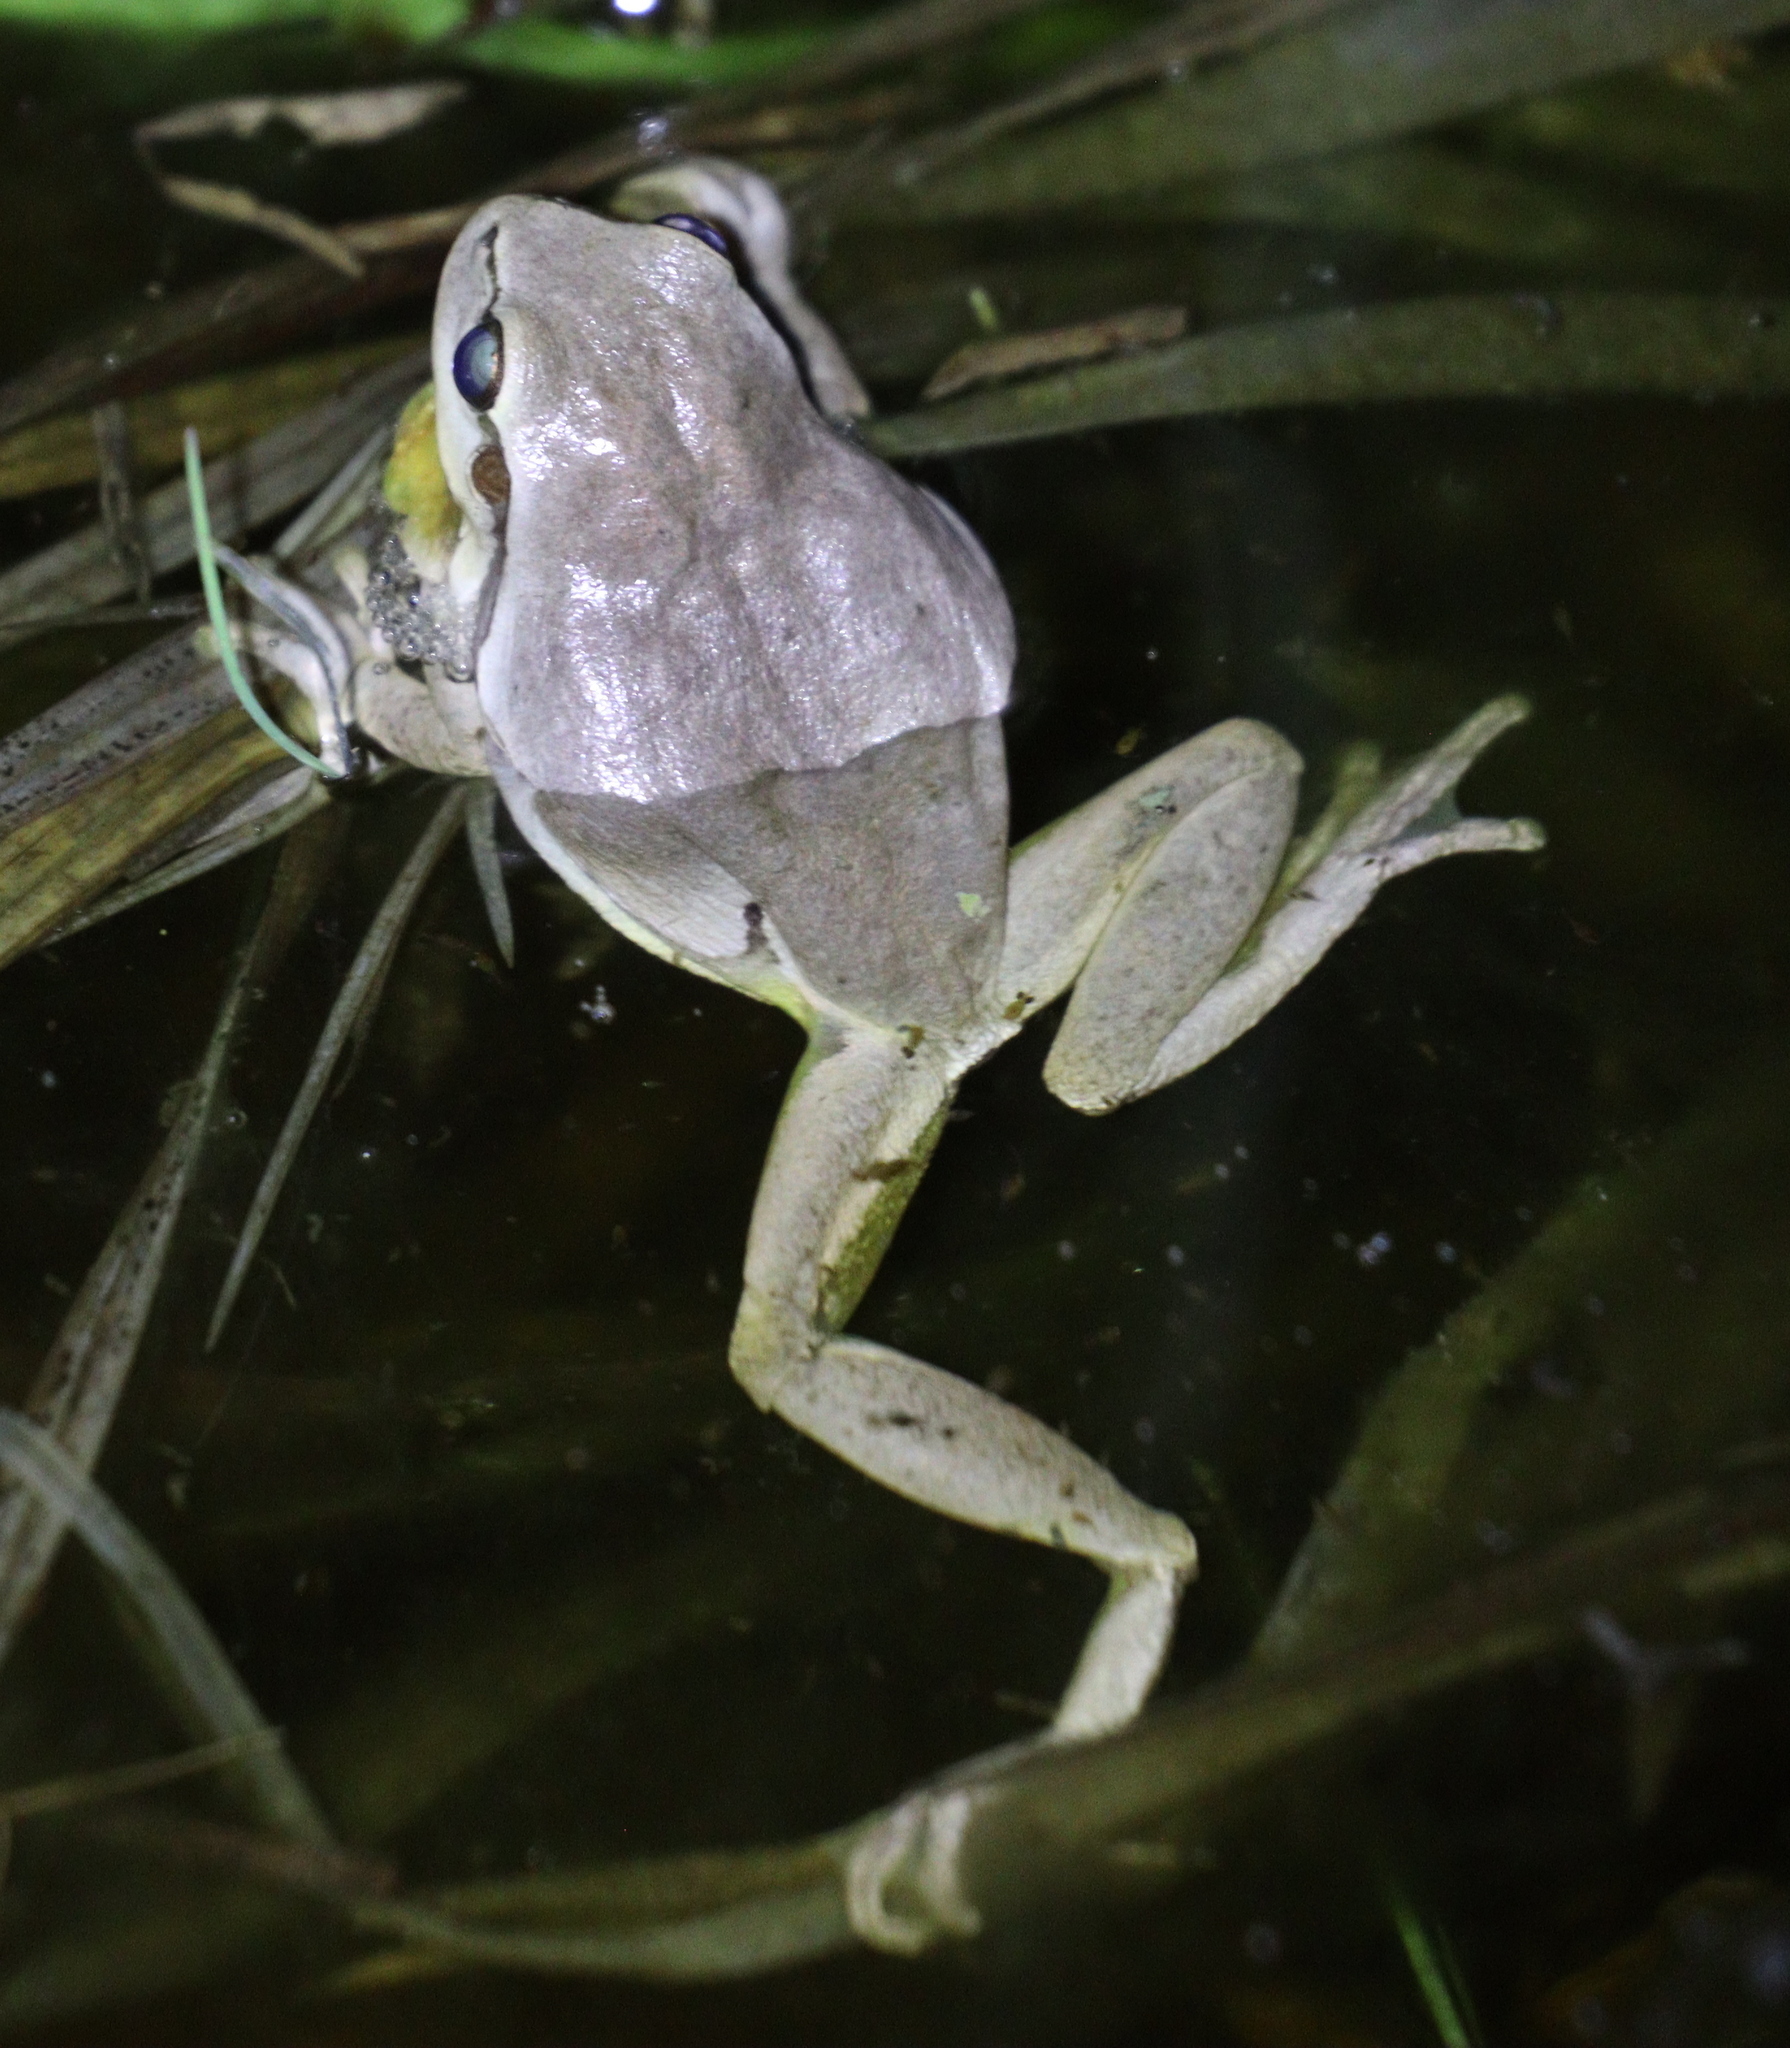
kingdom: Animalia
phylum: Chordata
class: Amphibia
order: Anura
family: Hylidae
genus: Hyla
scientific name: Hyla arborea
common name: Common tree frog
